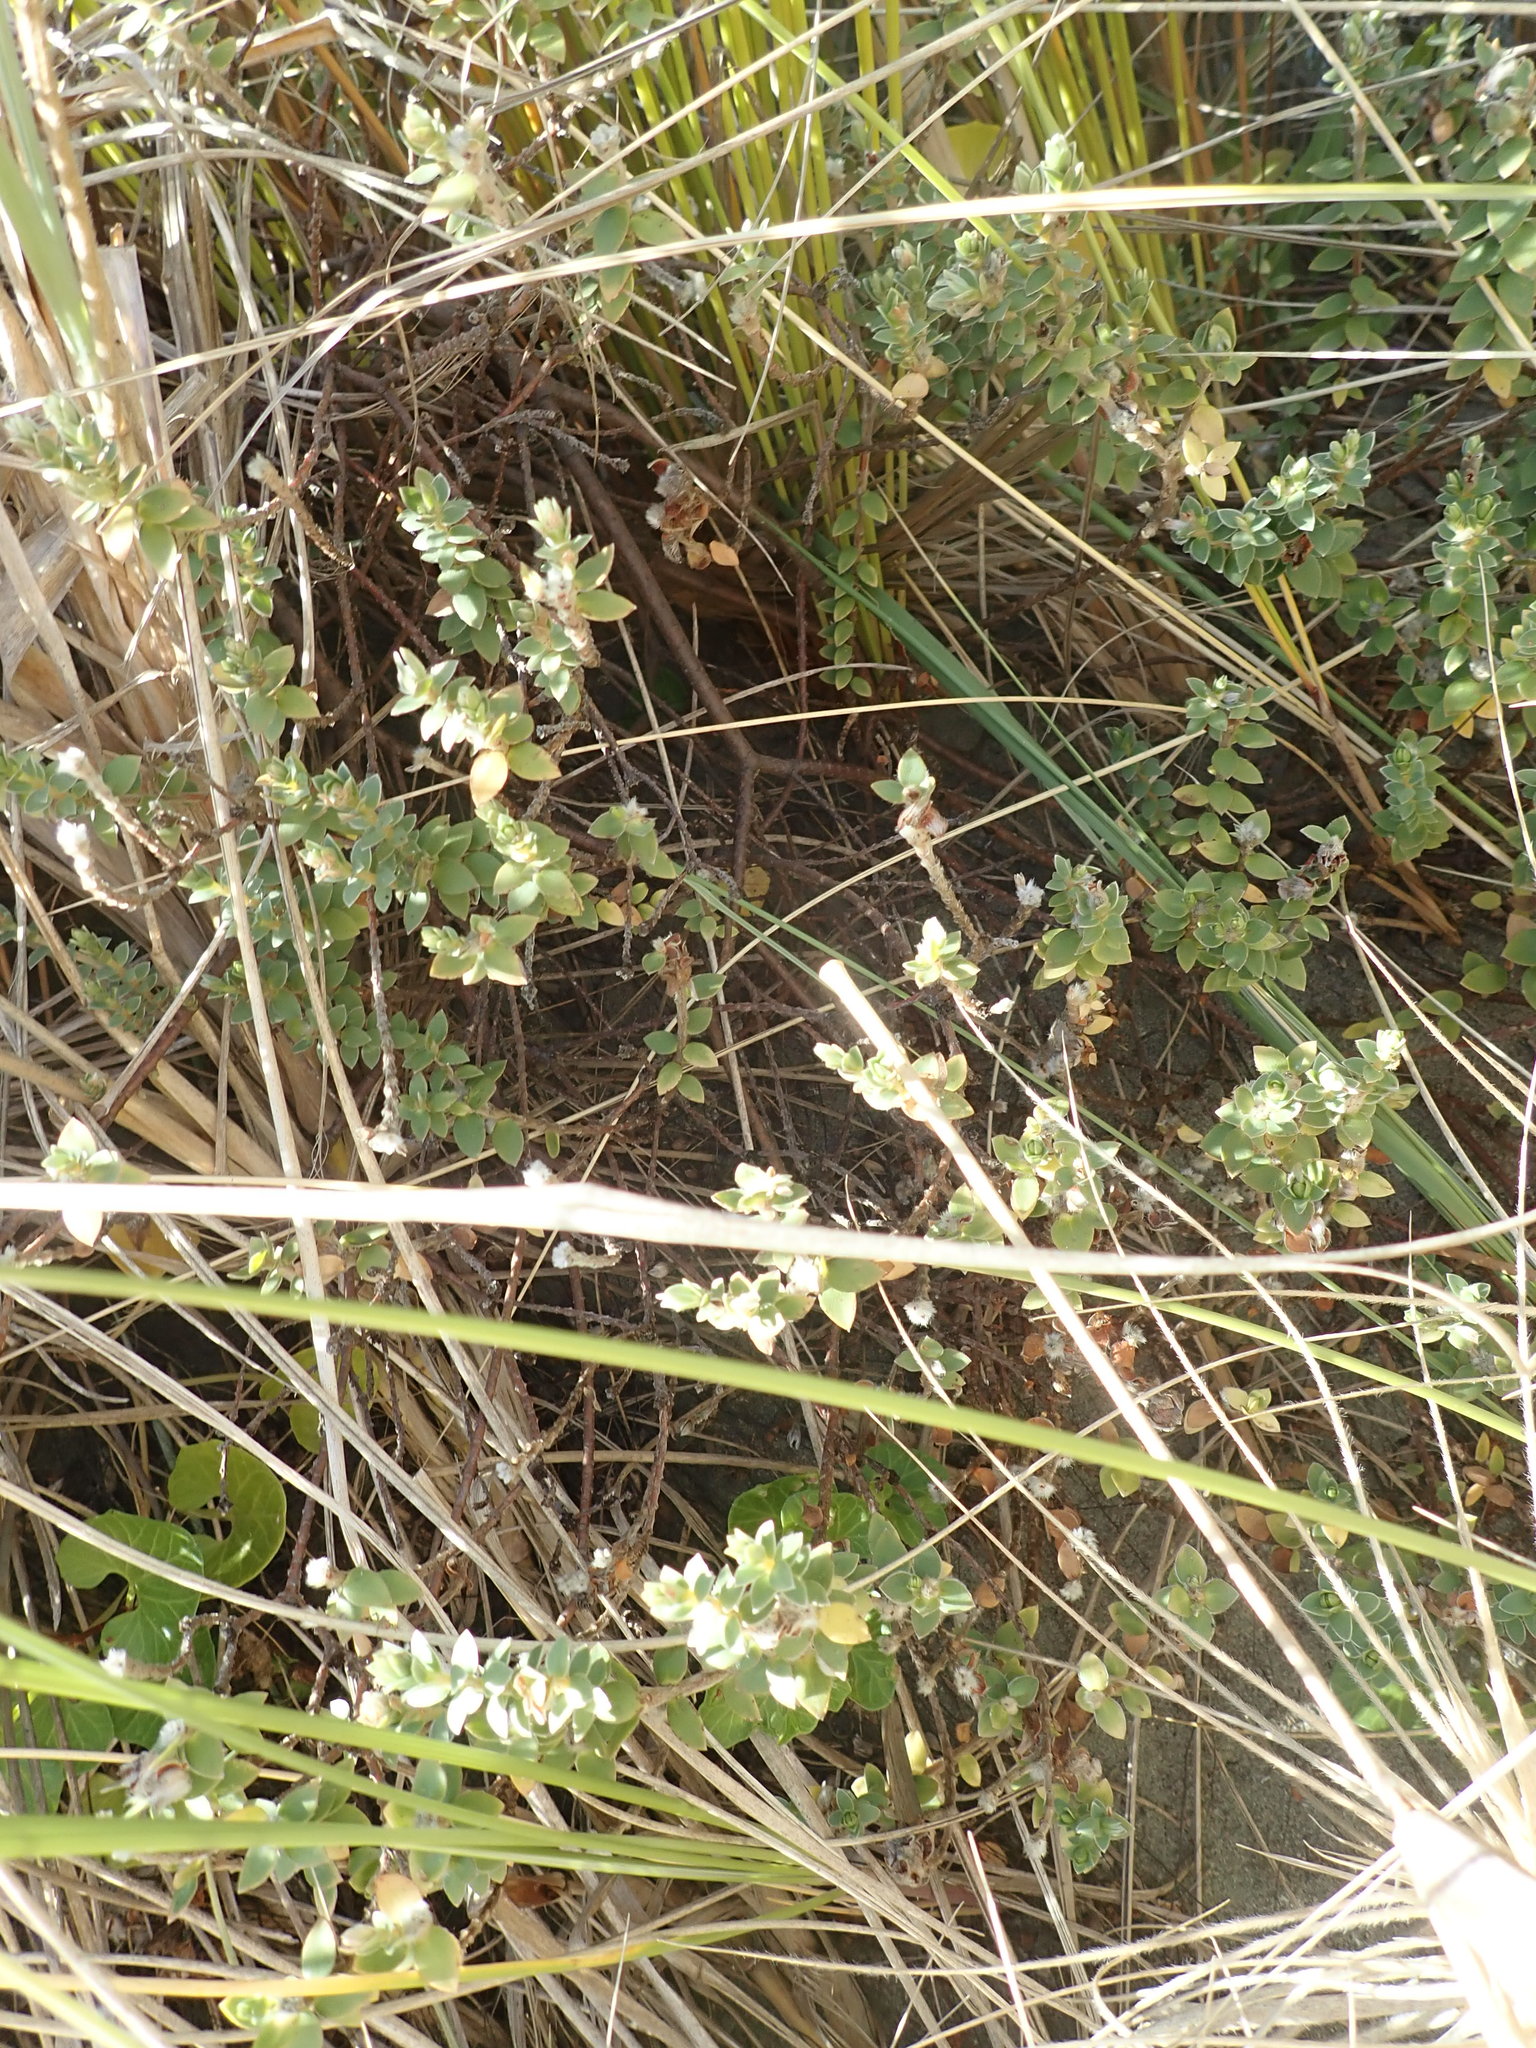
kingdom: Plantae
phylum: Tracheophyta
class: Magnoliopsida
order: Malvales
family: Thymelaeaceae
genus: Pimelea
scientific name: Pimelea villosa
